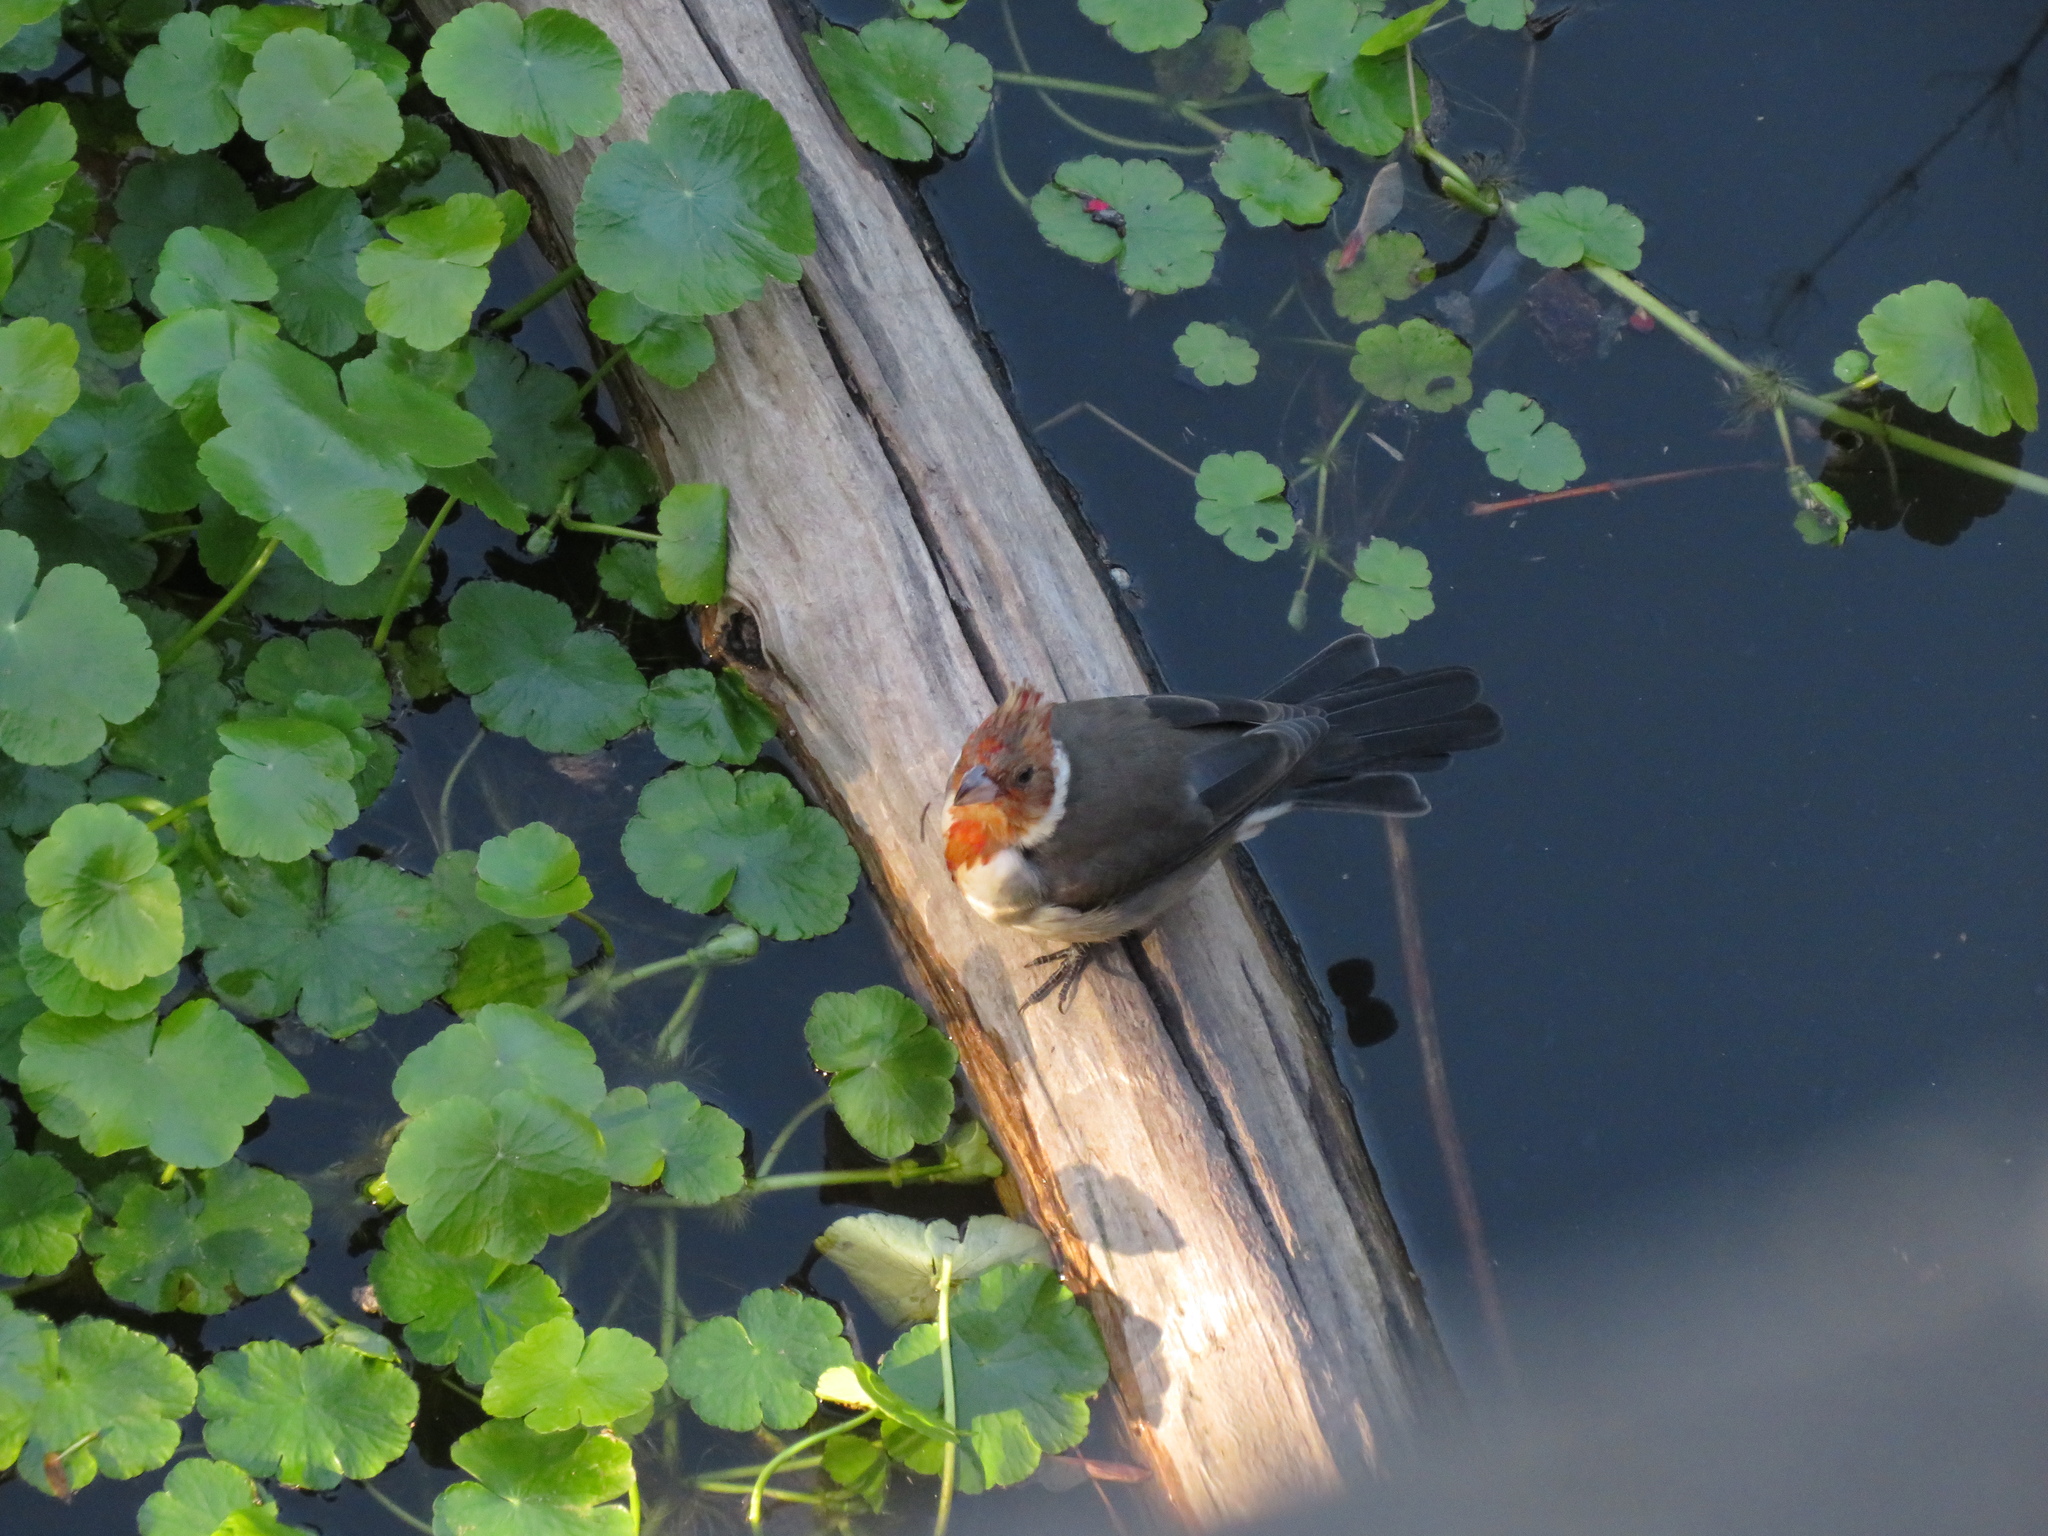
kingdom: Animalia
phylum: Chordata
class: Aves
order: Passeriformes
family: Thraupidae
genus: Paroaria
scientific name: Paroaria coronata
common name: Red-crested cardinal
